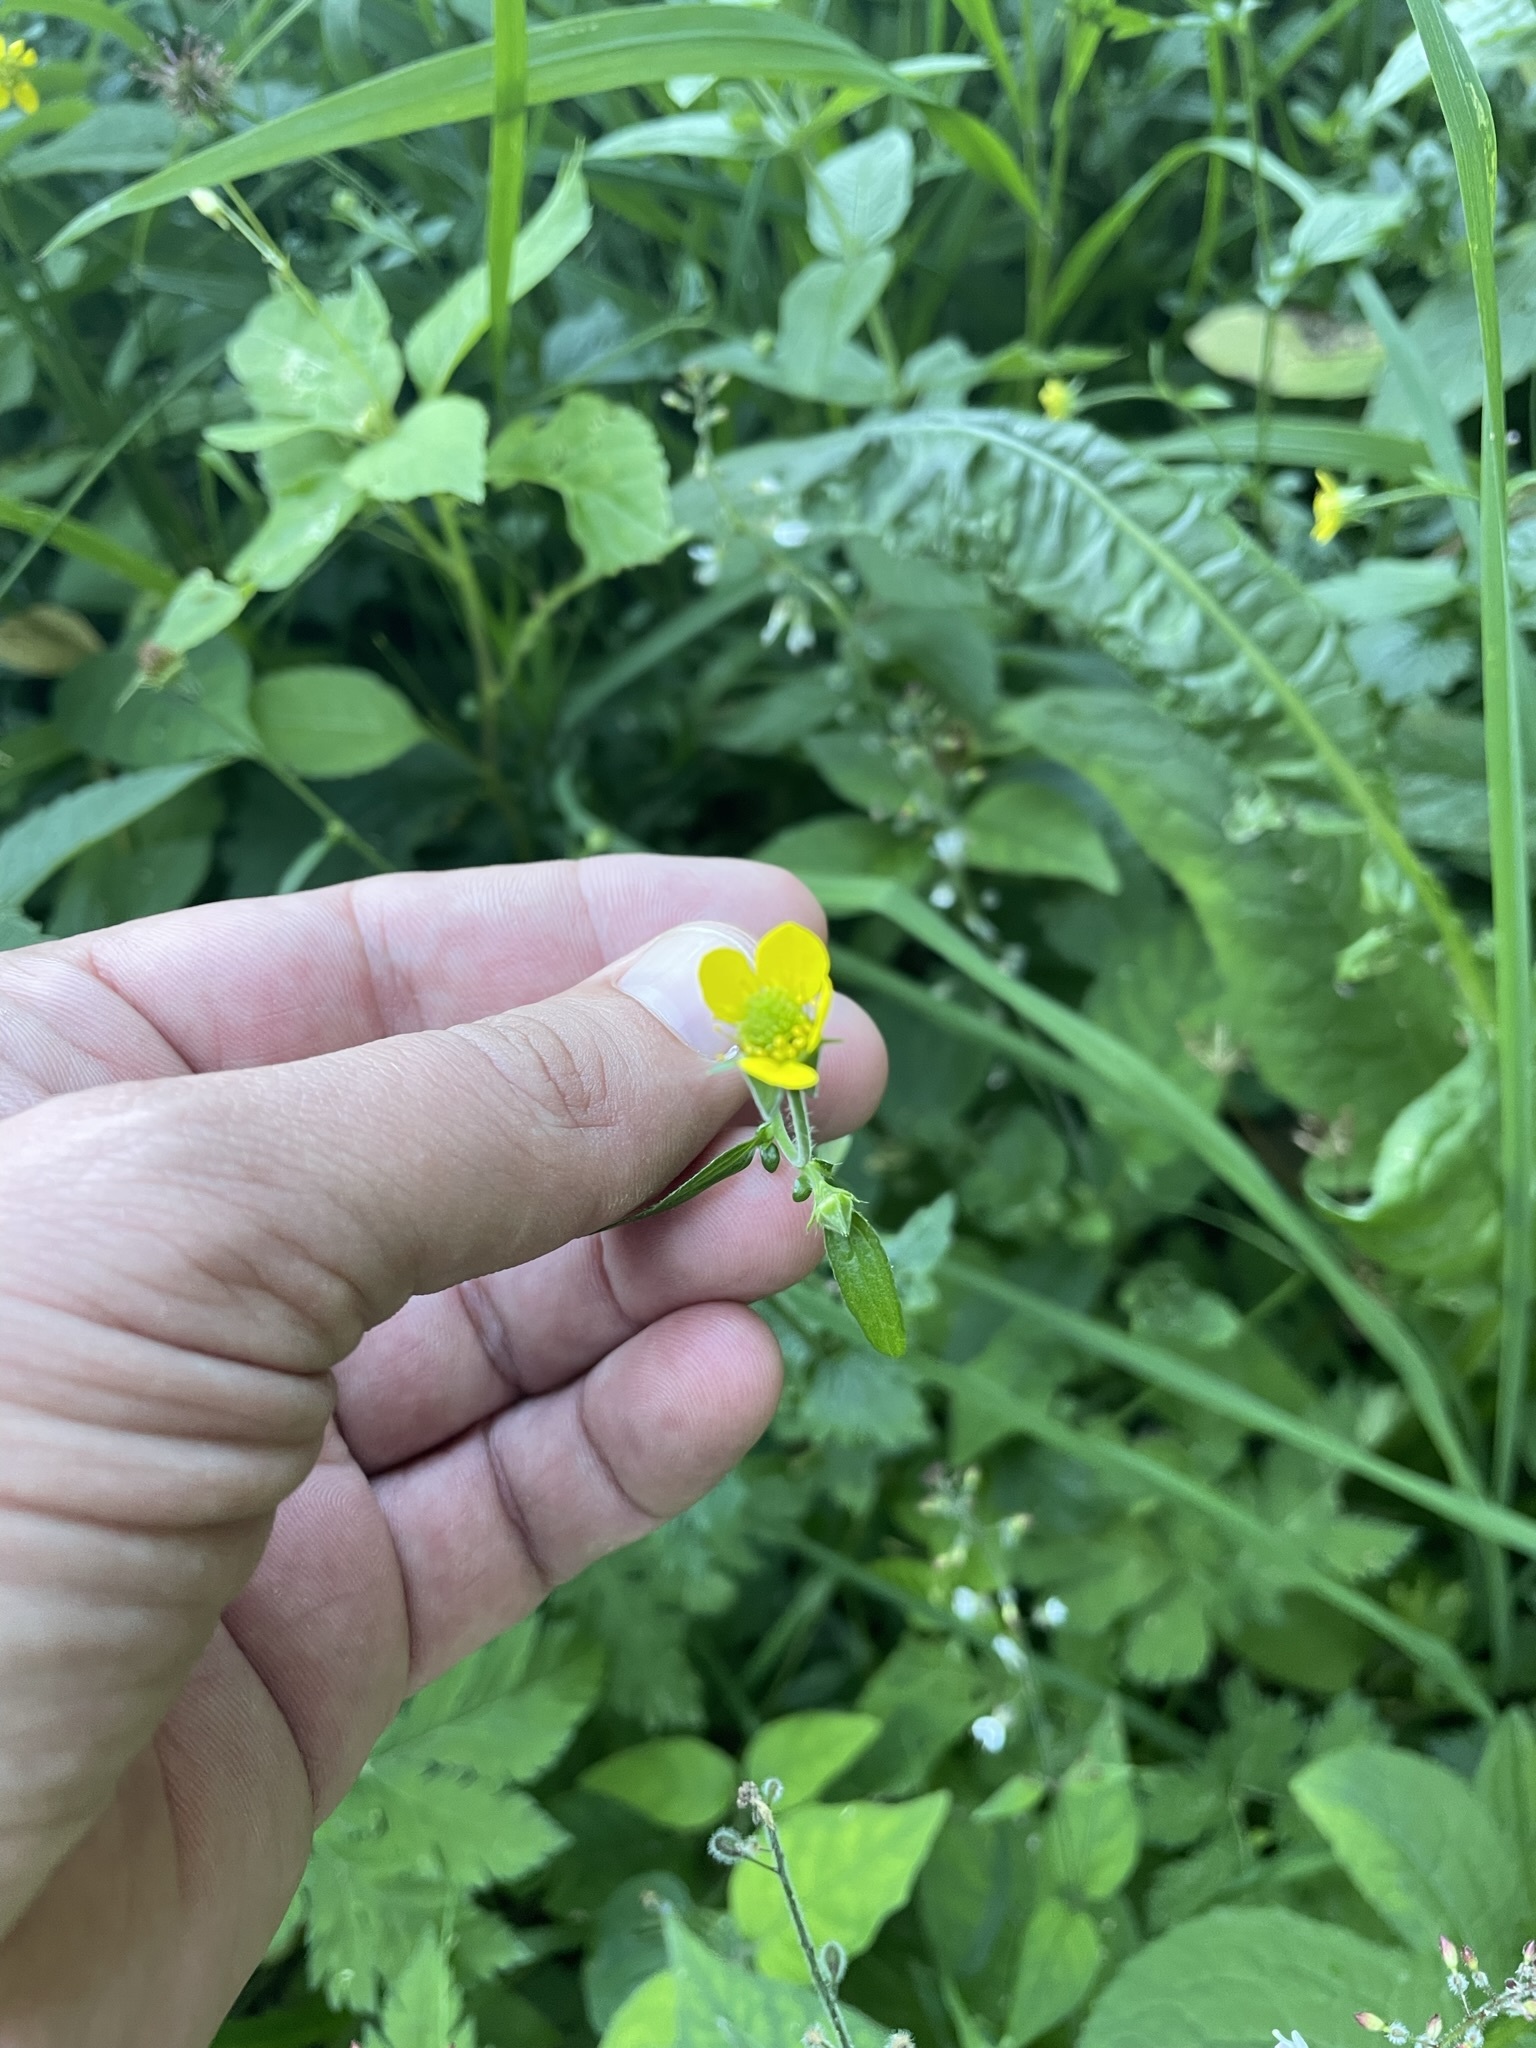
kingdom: Plantae
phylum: Tracheophyta
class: Magnoliopsida
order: Rosales
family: Rosaceae
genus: Geum
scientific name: Geum urbanum
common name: Wood avens
